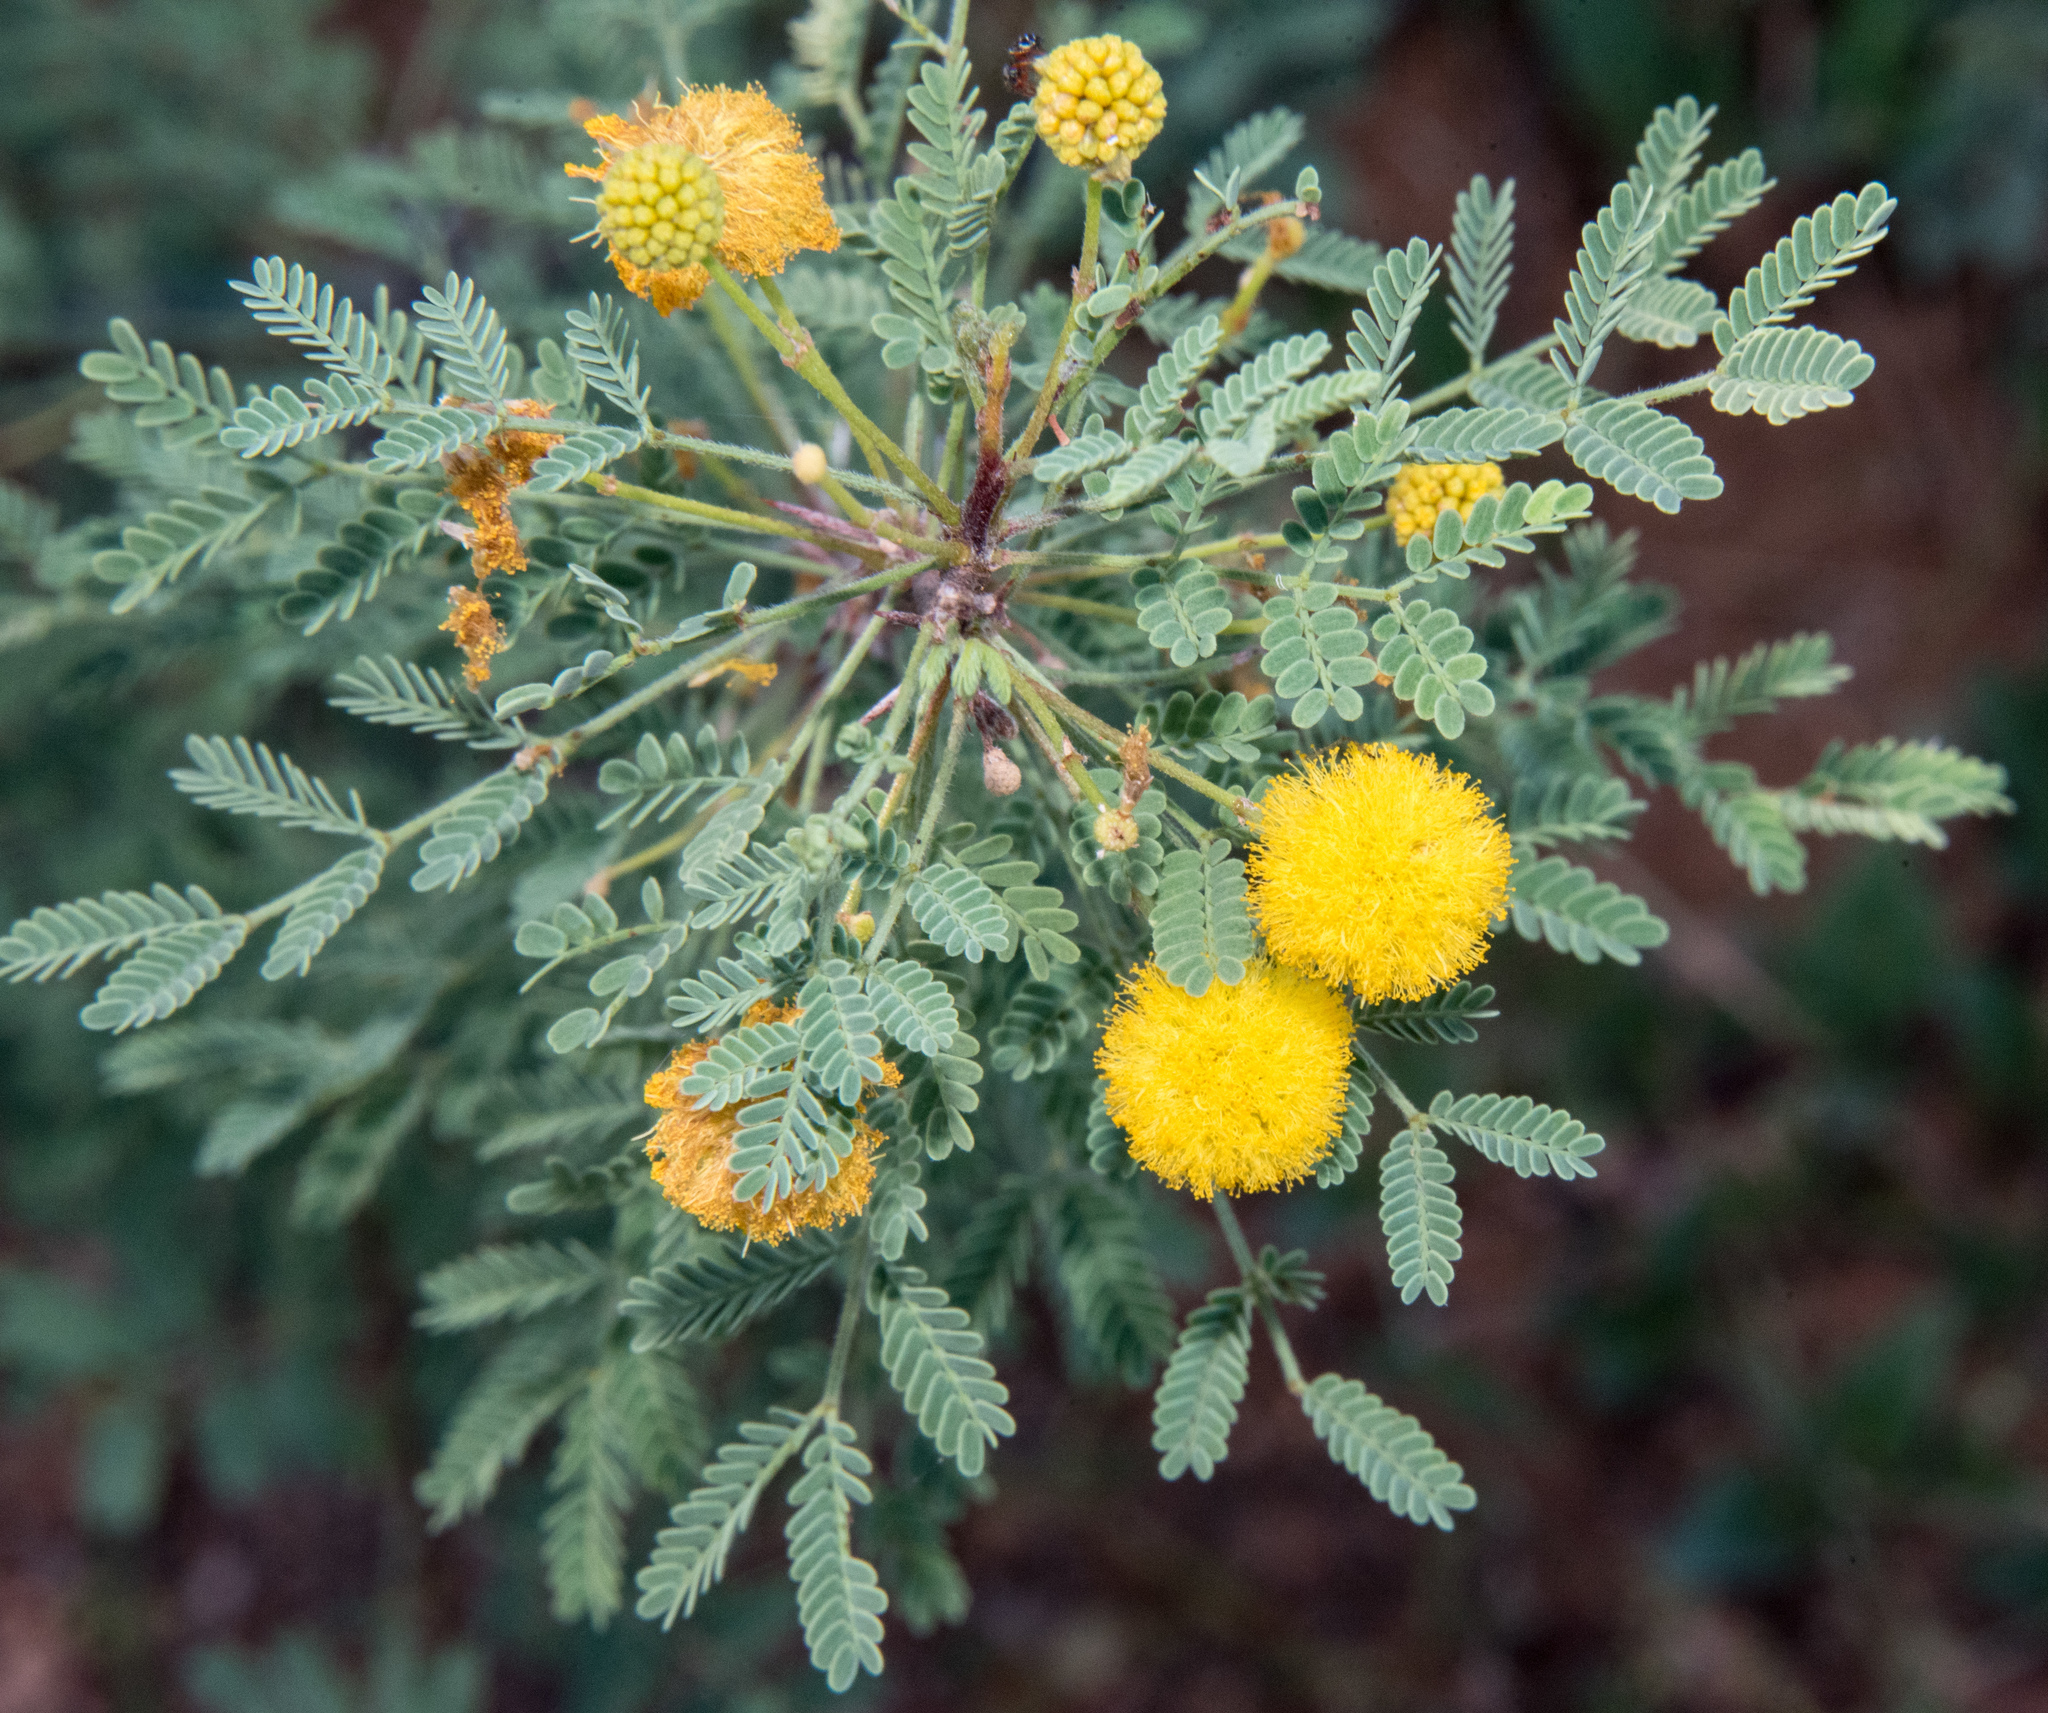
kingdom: Plantae
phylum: Tracheophyta
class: Magnoliopsida
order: Fabales
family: Fabaceae
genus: Vachellia
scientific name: Vachellia constricta
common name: Mescat acacia
